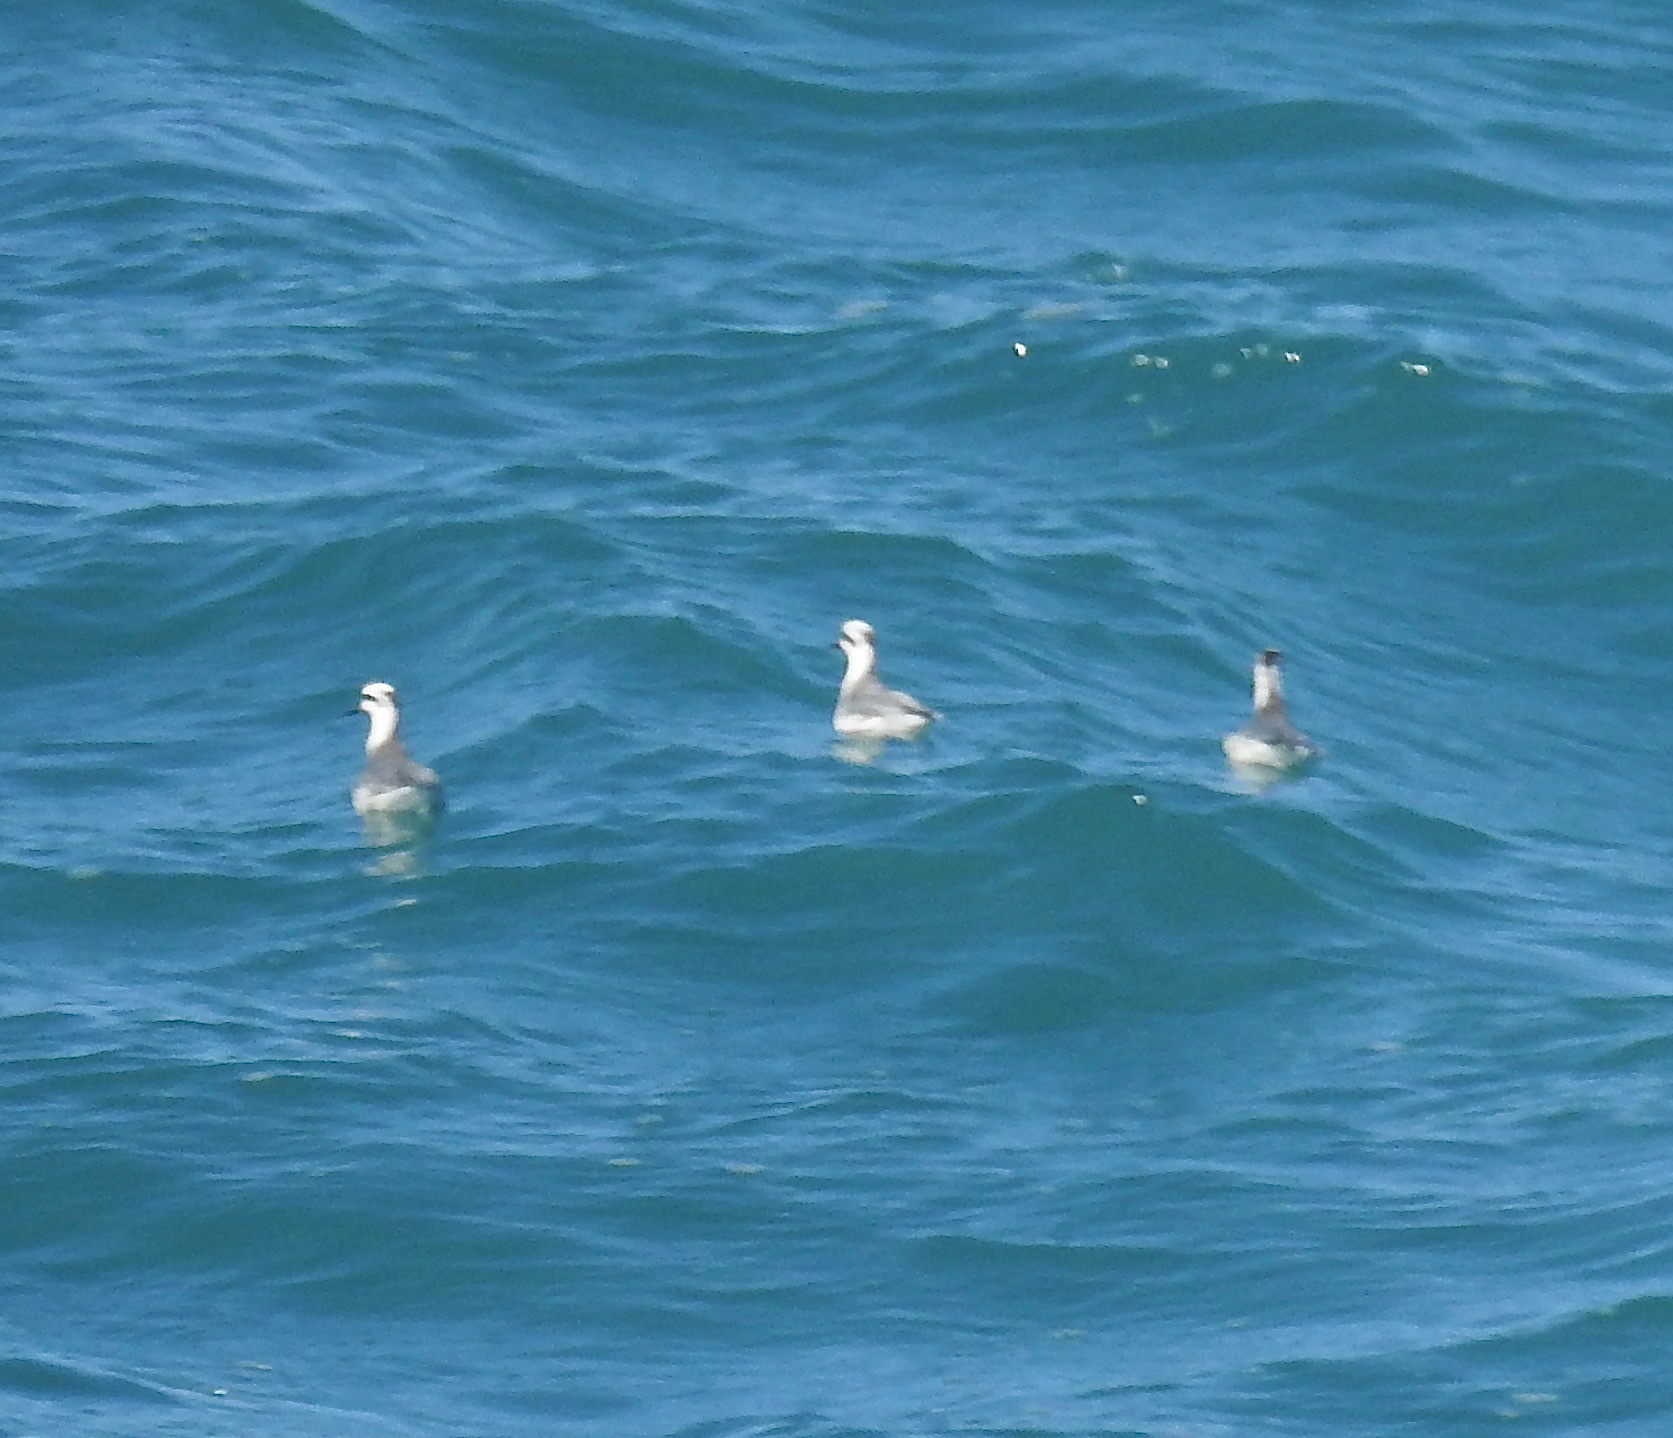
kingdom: Animalia
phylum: Chordata
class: Aves
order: Charadriiformes
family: Scolopacidae
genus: Phalaropus
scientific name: Phalaropus fulicarius
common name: Red phalarope
